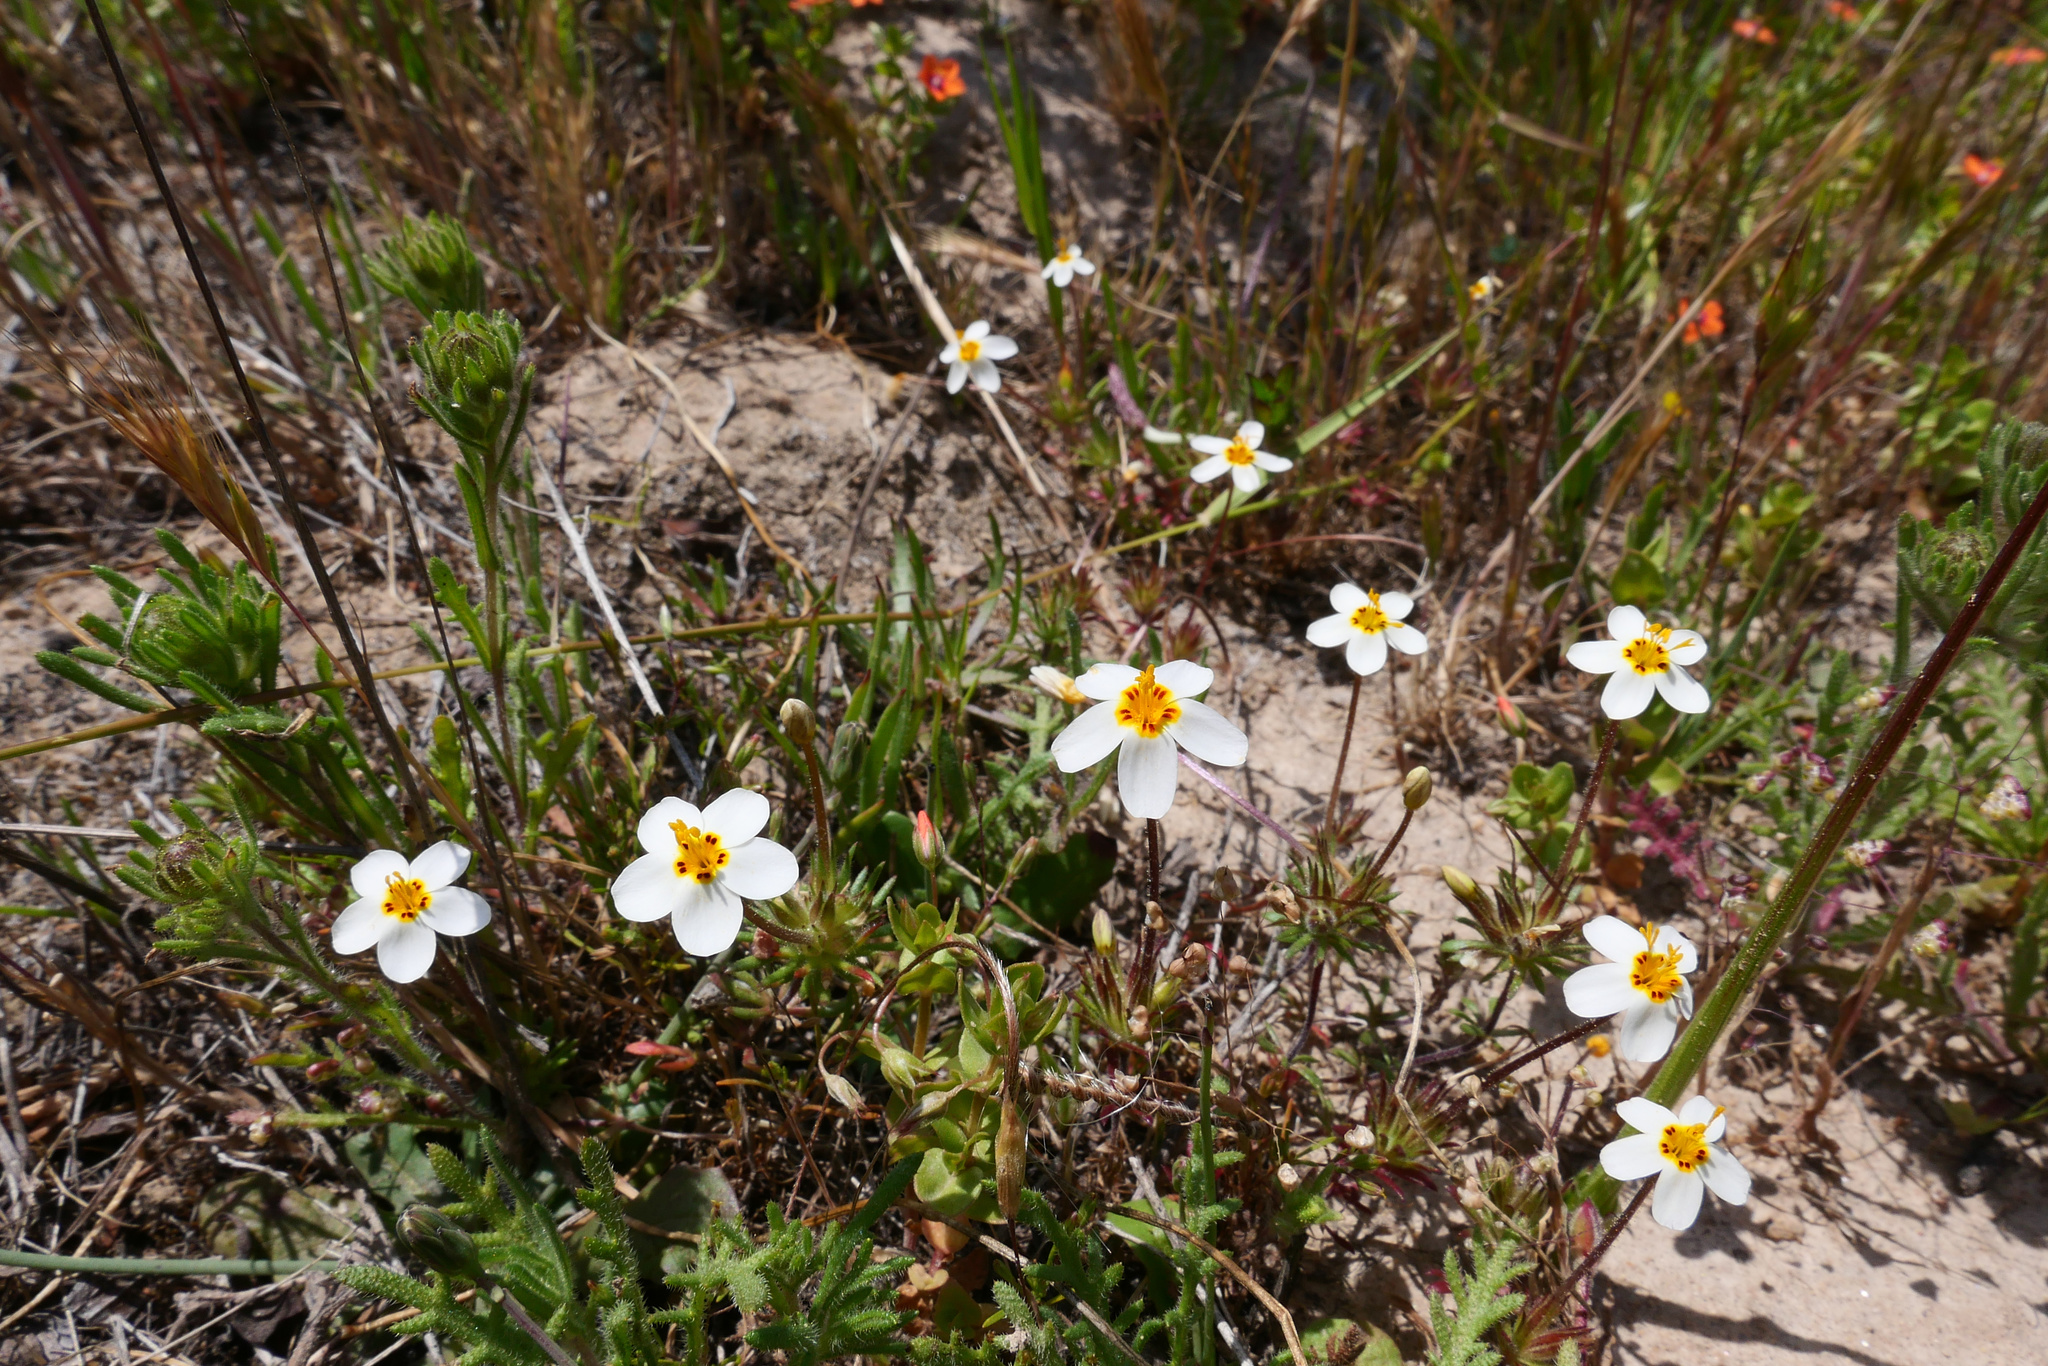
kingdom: Plantae
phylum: Tracheophyta
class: Magnoliopsida
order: Ericales
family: Polemoniaceae
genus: Leptosiphon
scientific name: Leptosiphon parviflorus
